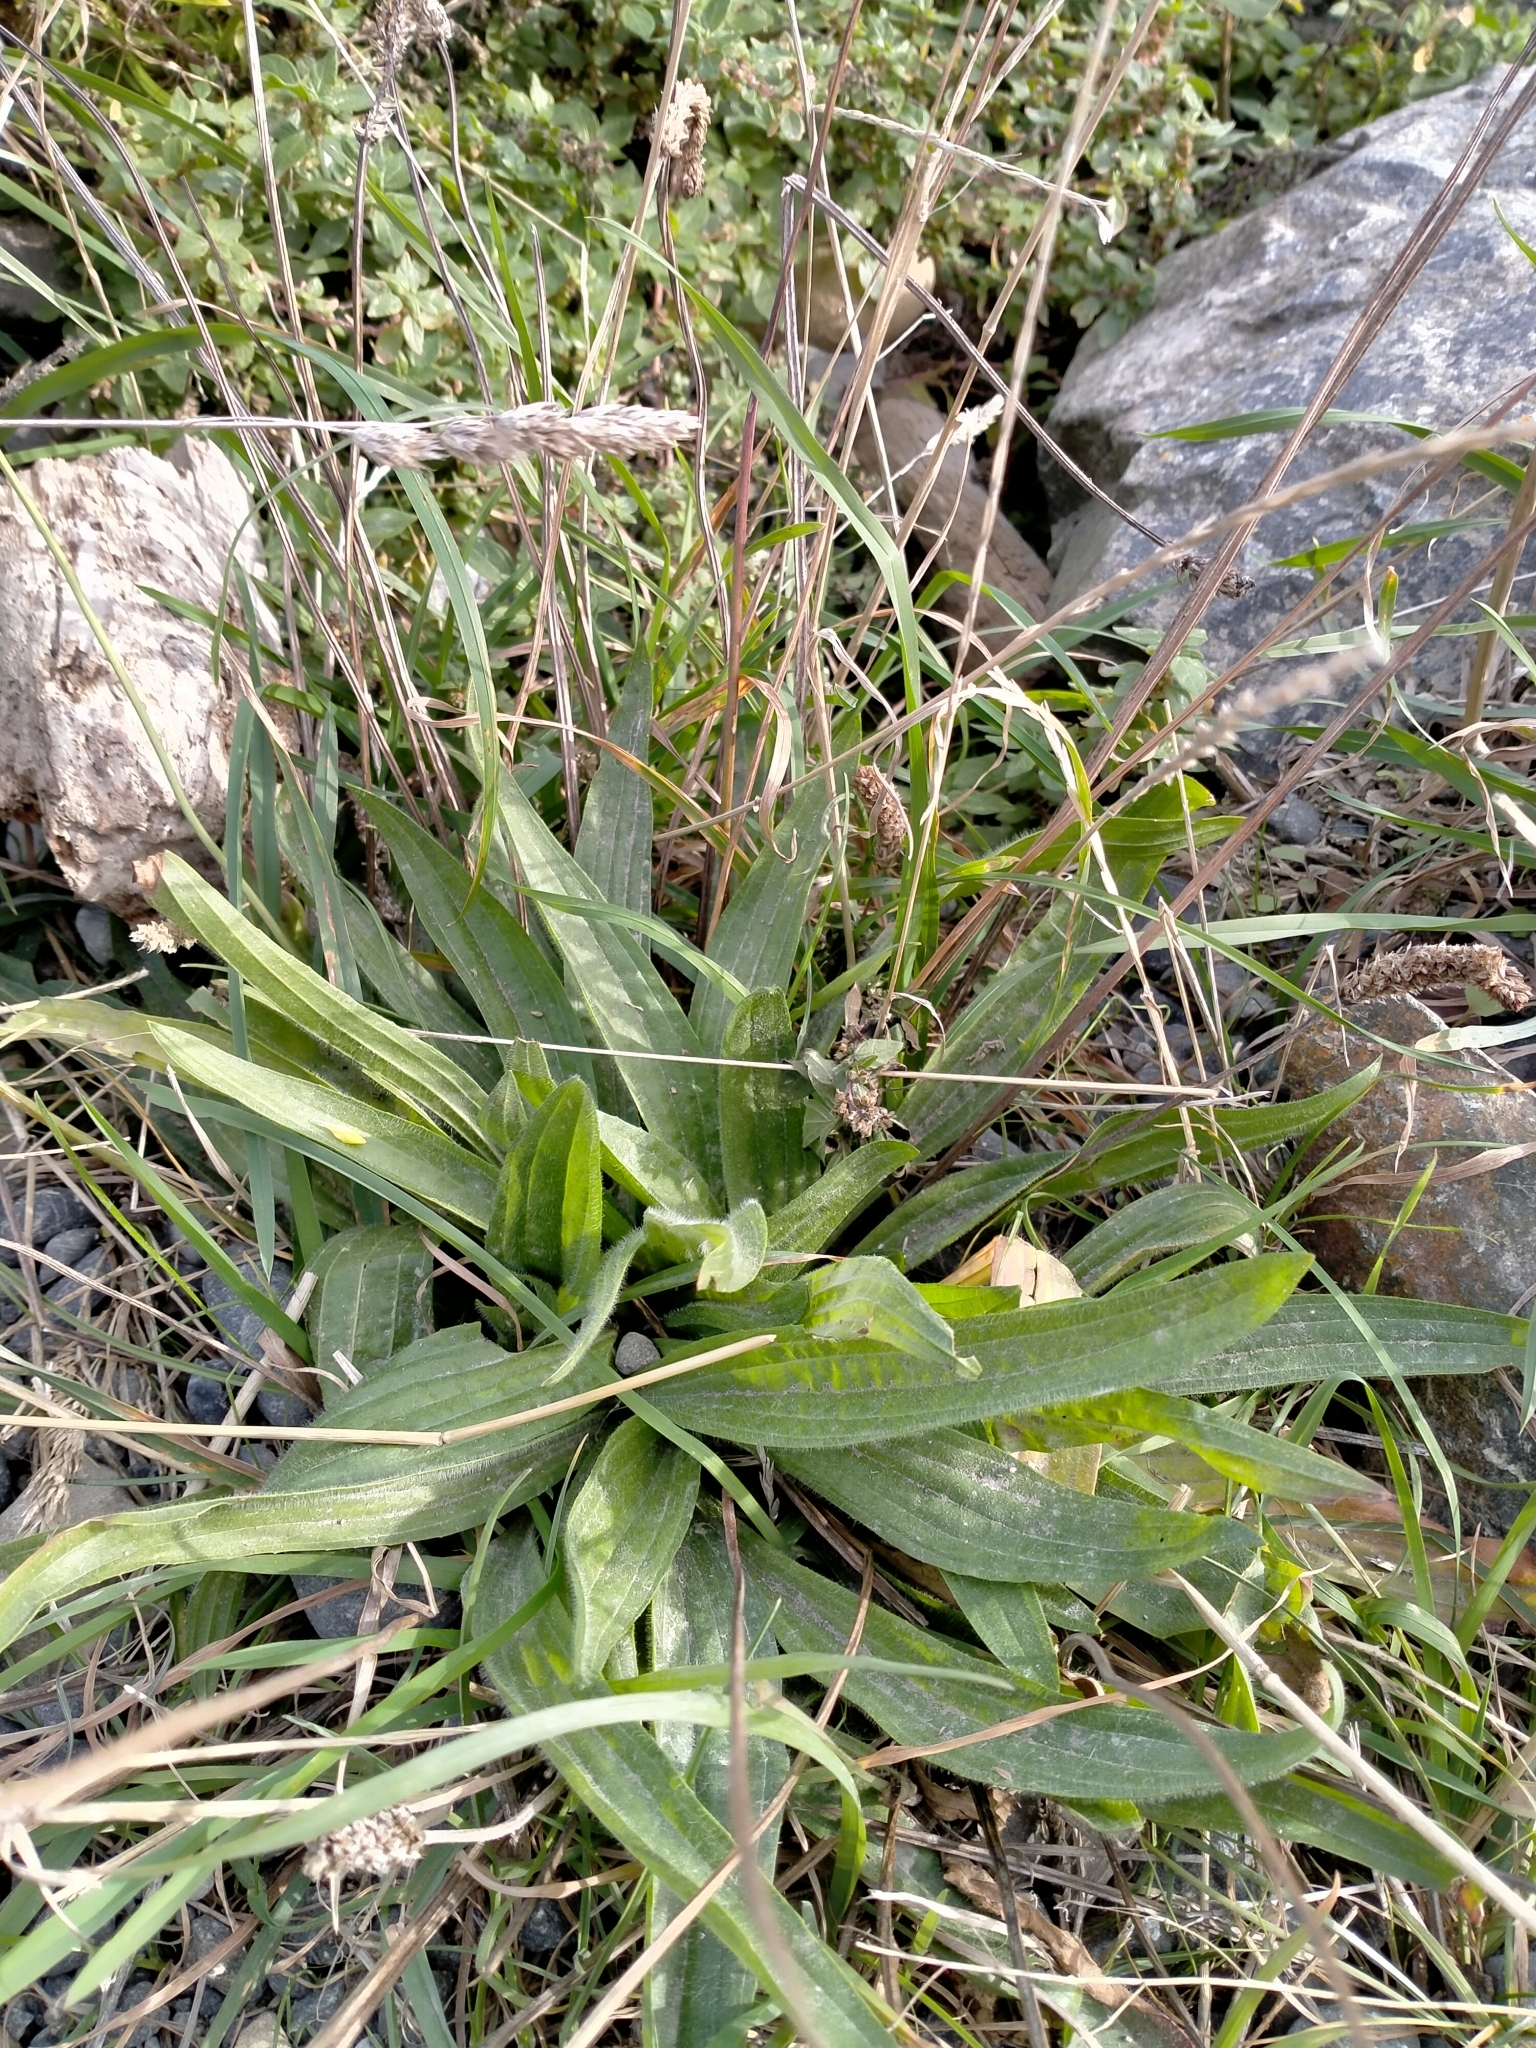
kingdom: Plantae
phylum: Tracheophyta
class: Magnoliopsida
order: Lamiales
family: Plantaginaceae
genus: Plantago
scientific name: Plantago lanceolata
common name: Ribwort plantain
